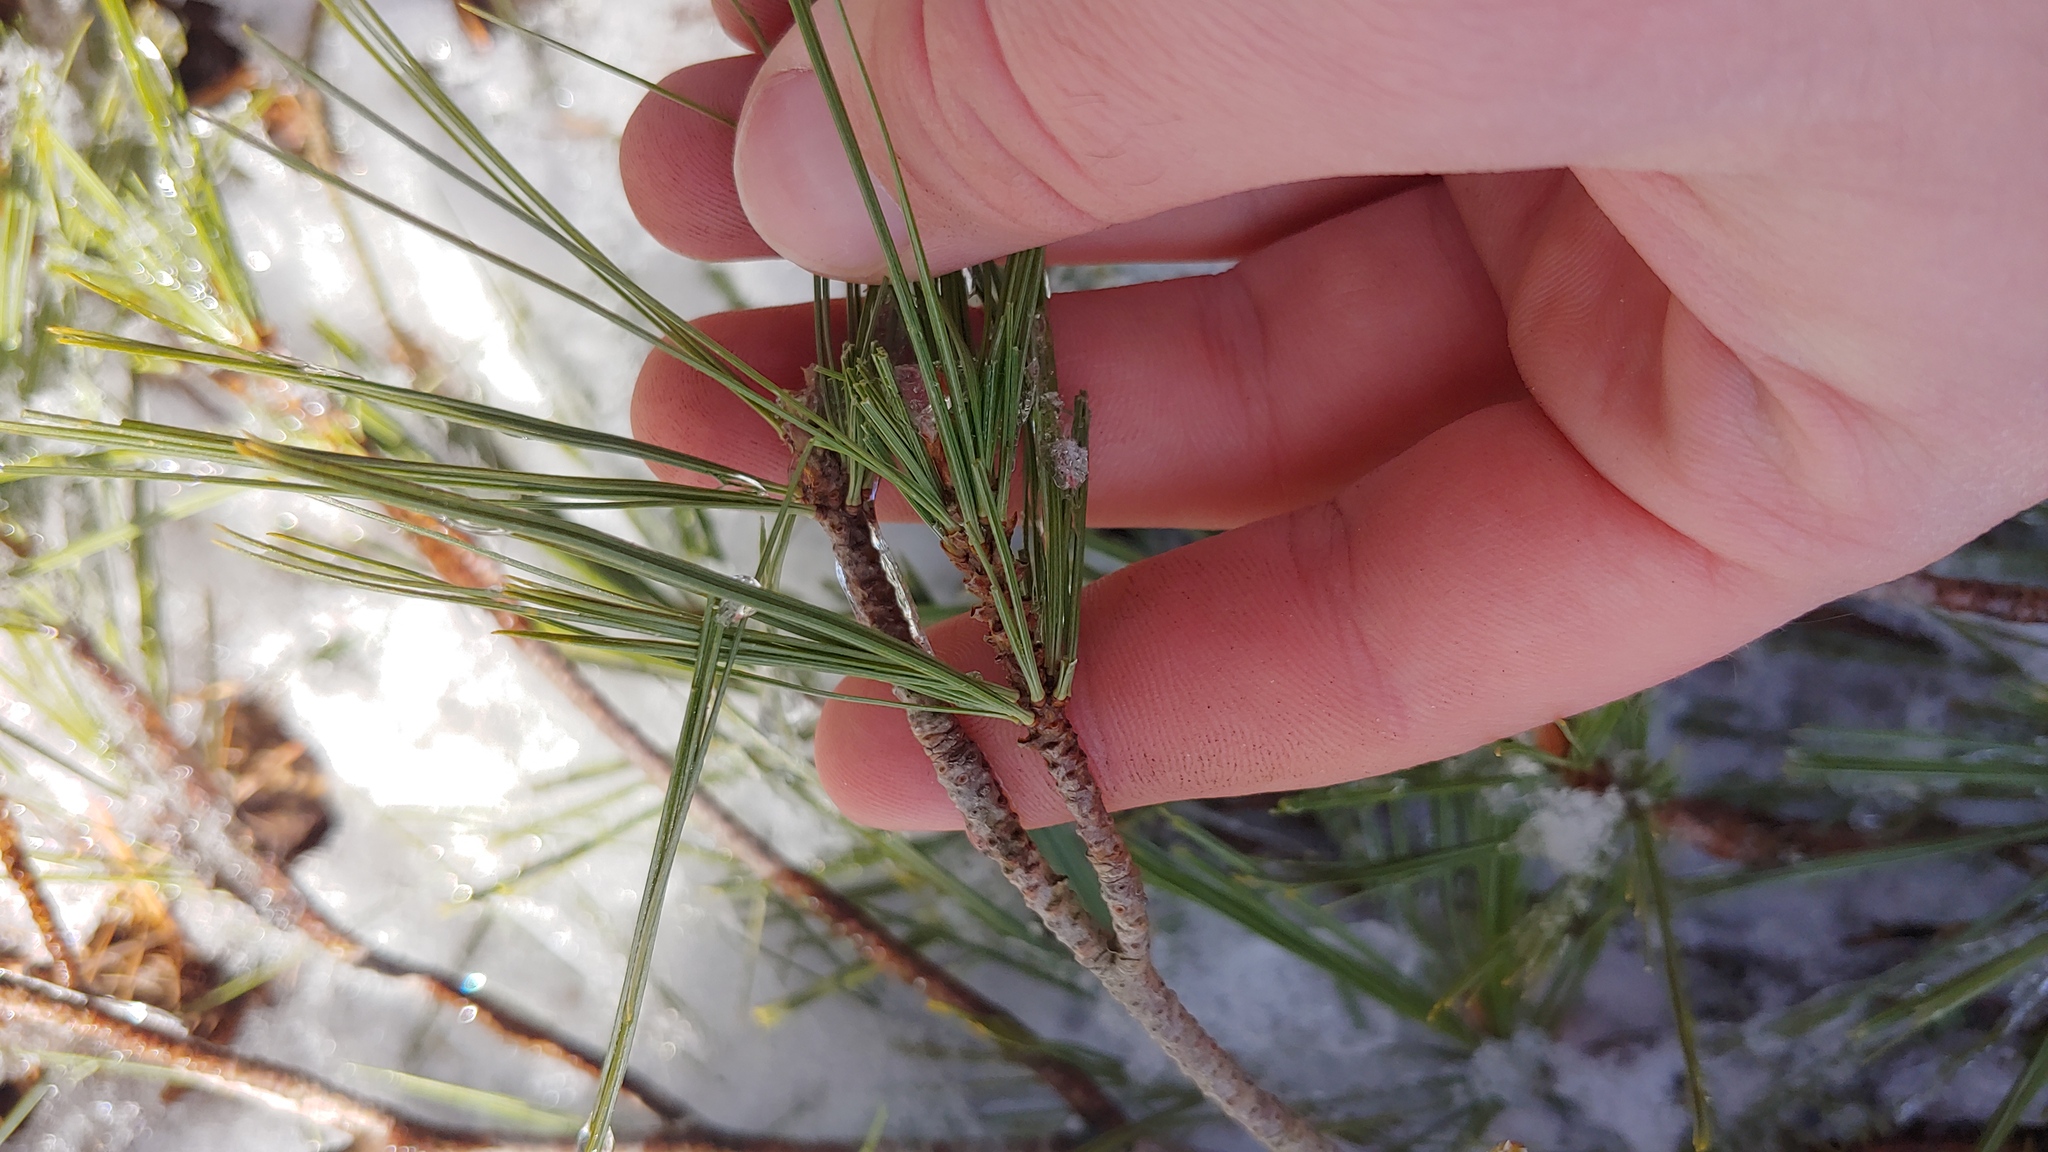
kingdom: Plantae
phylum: Tracheophyta
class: Pinopsida
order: Pinales
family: Pinaceae
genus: Pinus
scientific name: Pinus strobus
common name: Weymouth pine
